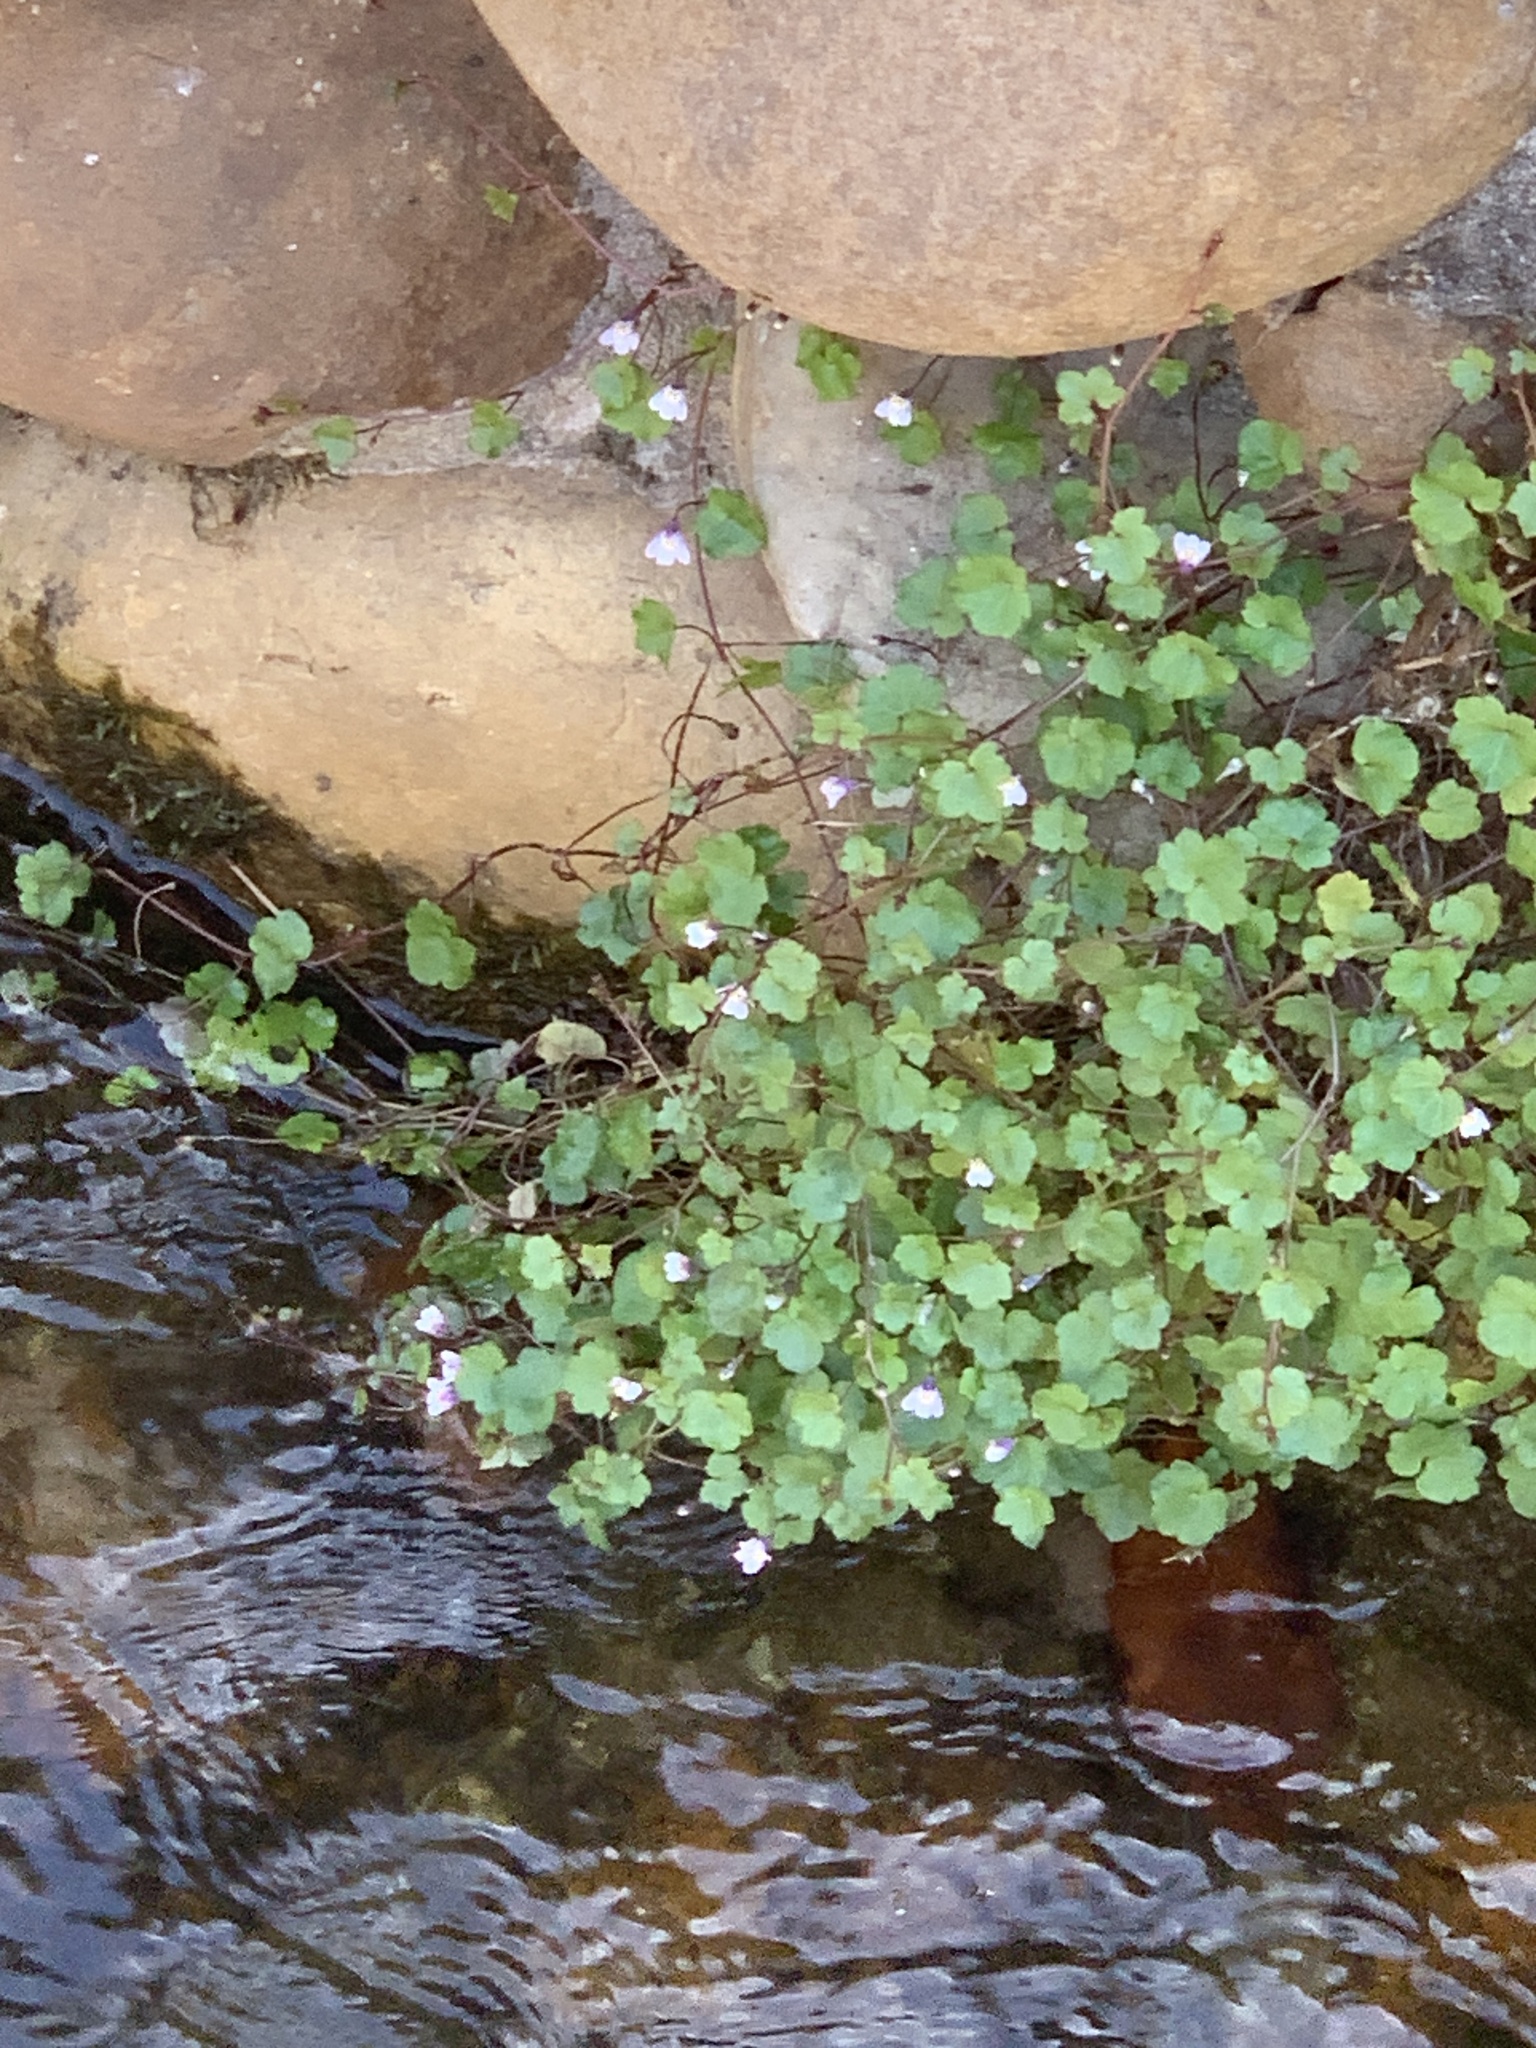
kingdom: Plantae
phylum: Tracheophyta
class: Magnoliopsida
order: Lamiales
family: Plantaginaceae
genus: Cymbalaria
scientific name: Cymbalaria muralis
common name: Ivy-leaved toadflax
